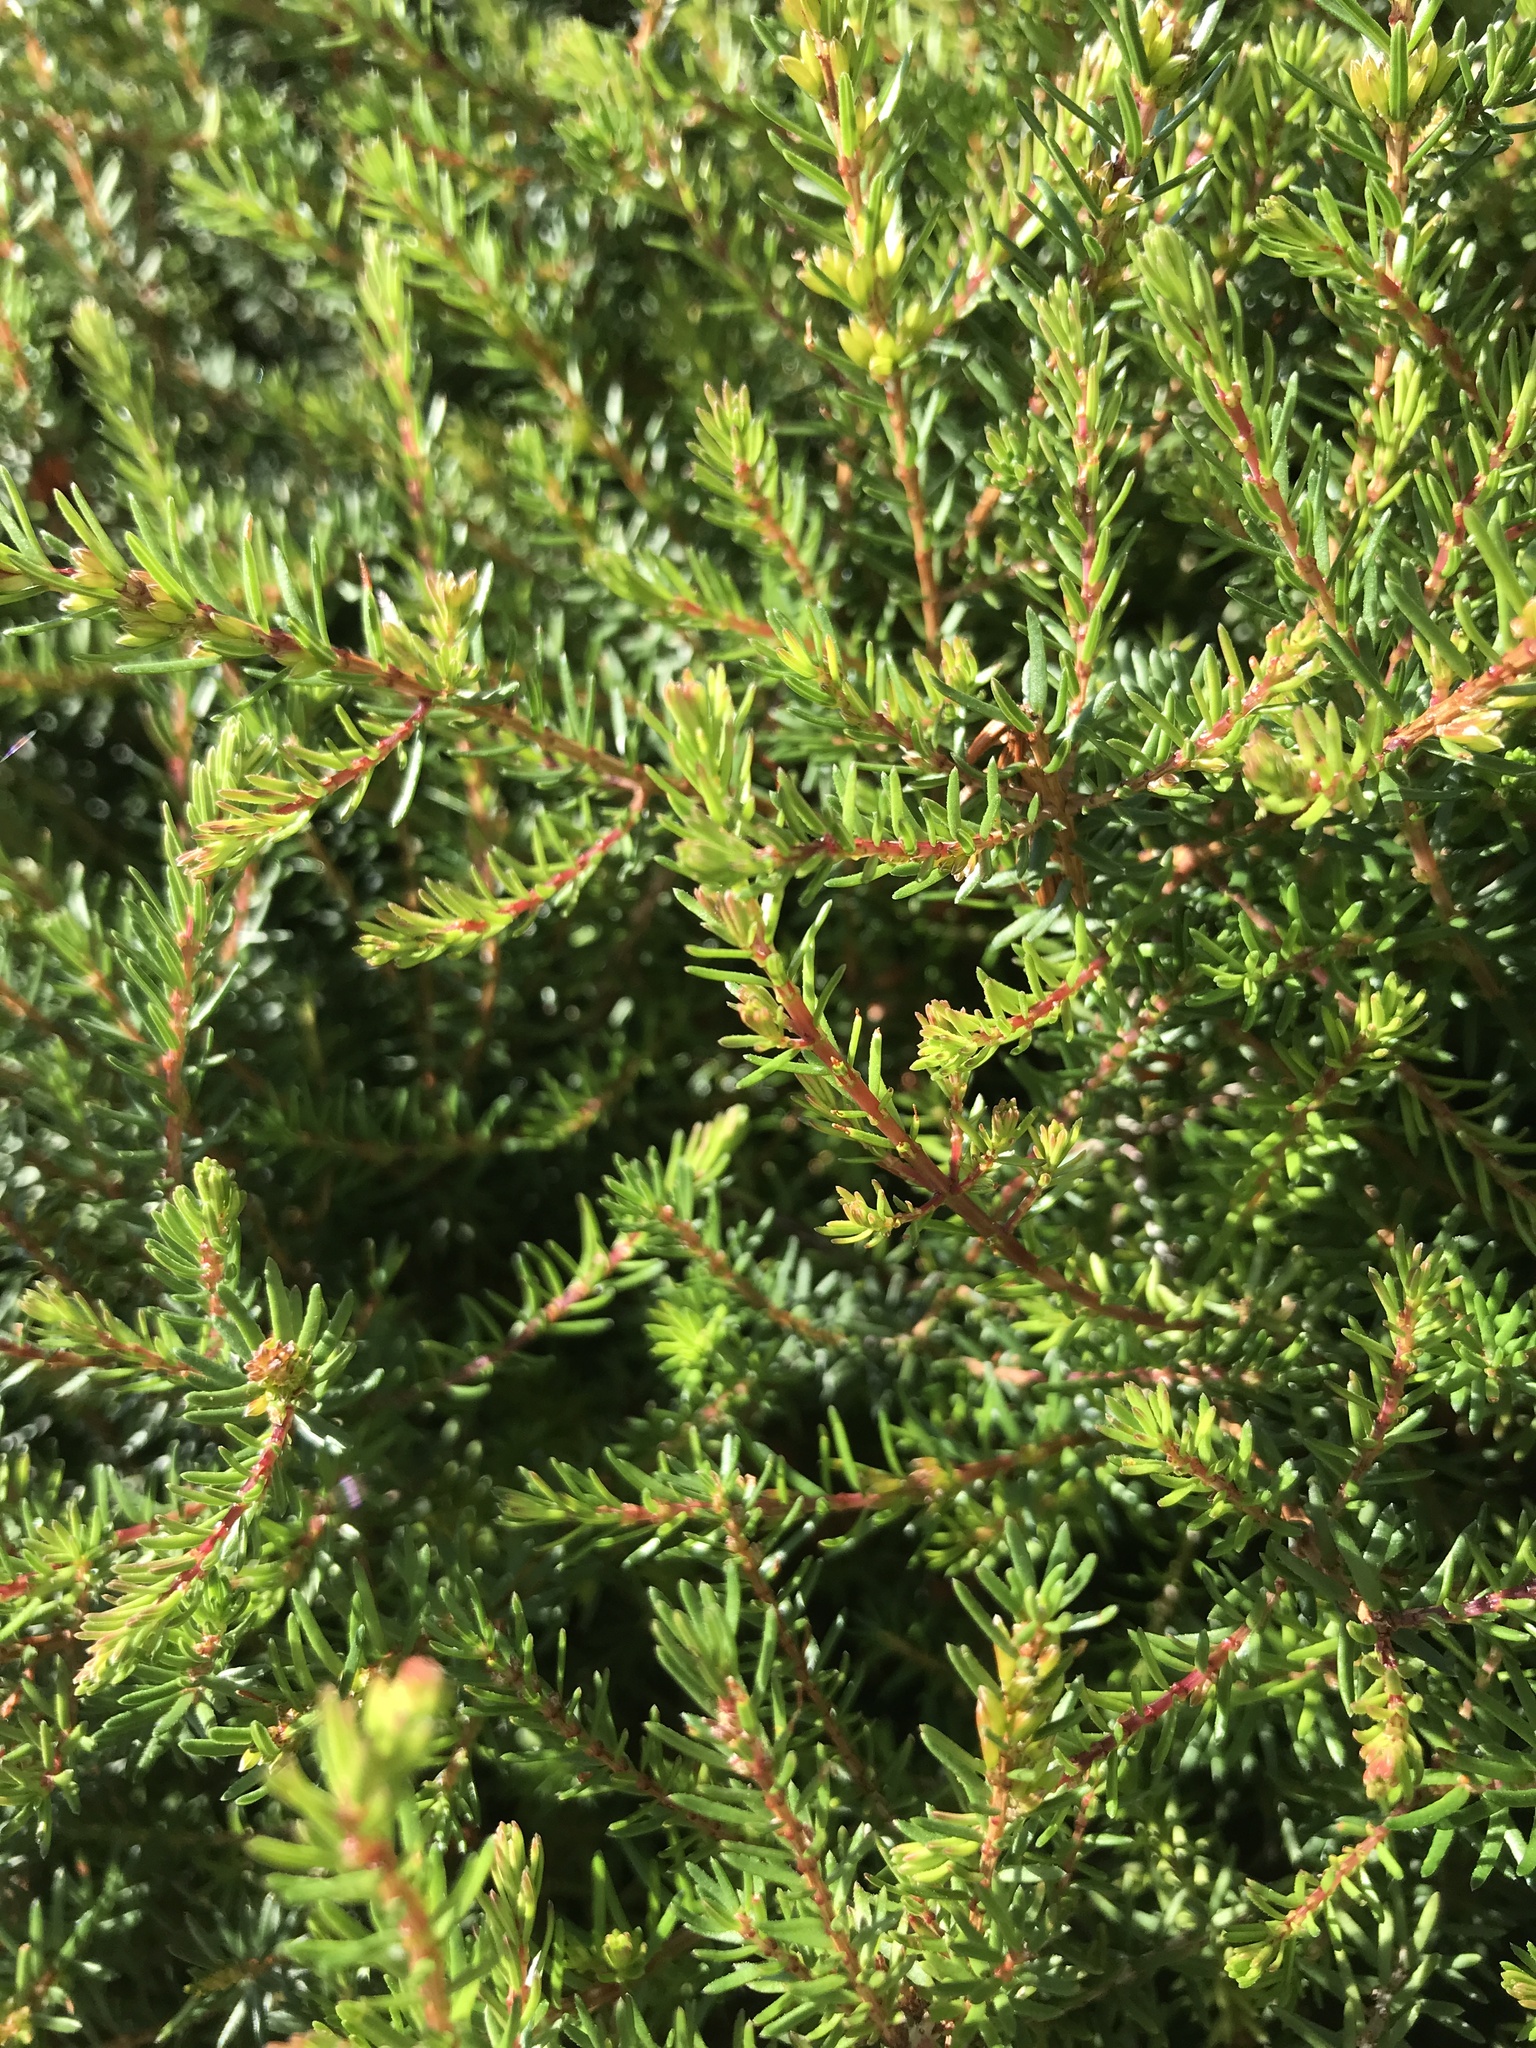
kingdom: Plantae
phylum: Tracheophyta
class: Magnoliopsida
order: Ericales
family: Ericaceae
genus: Erica
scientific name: Erica carnea
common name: Winter heath
